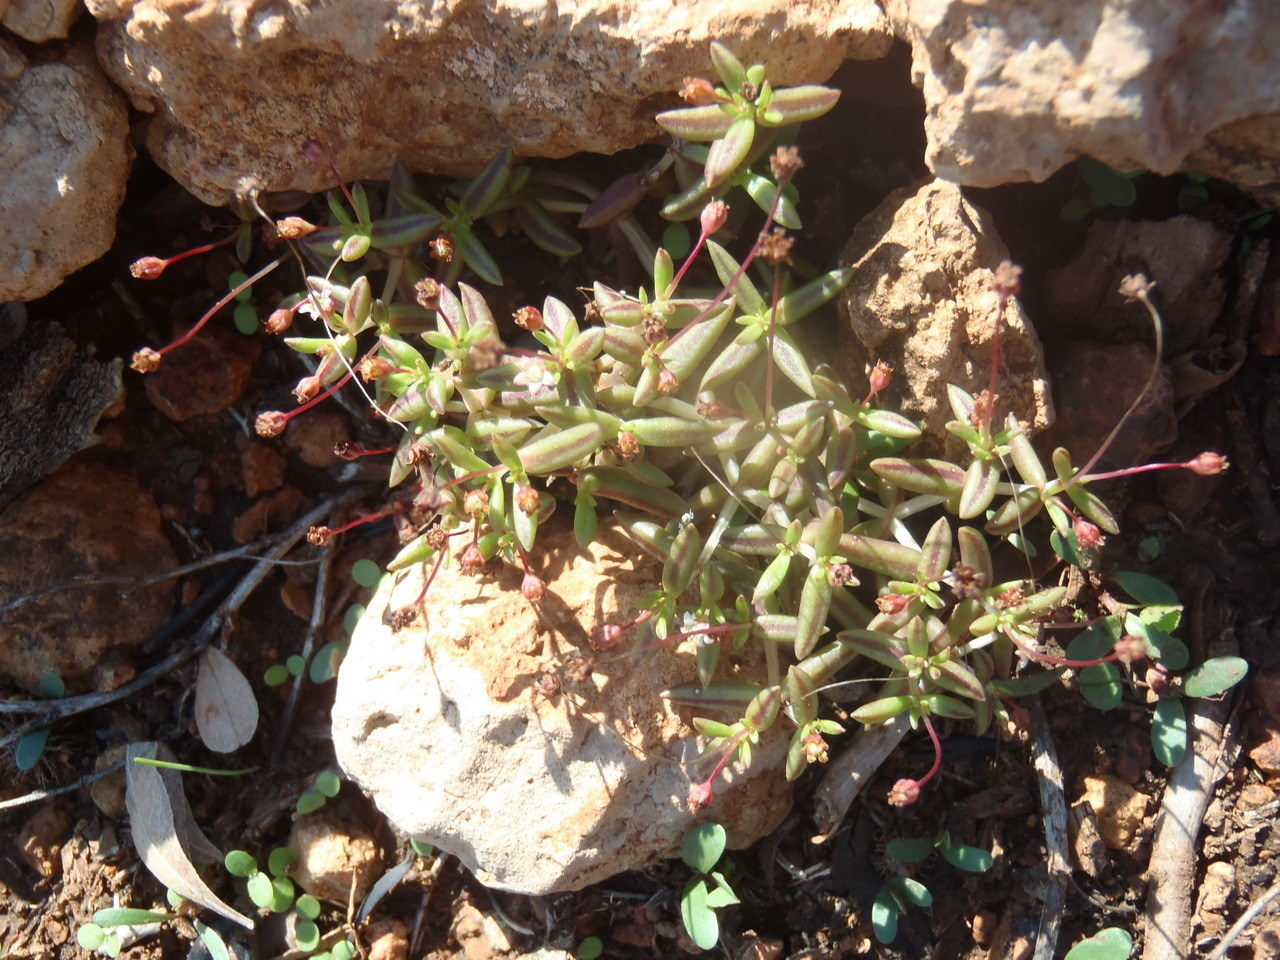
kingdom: Plantae
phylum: Tracheophyta
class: Magnoliopsida
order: Saxifragales
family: Crassulaceae
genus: Crassula
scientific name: Crassula expansa
